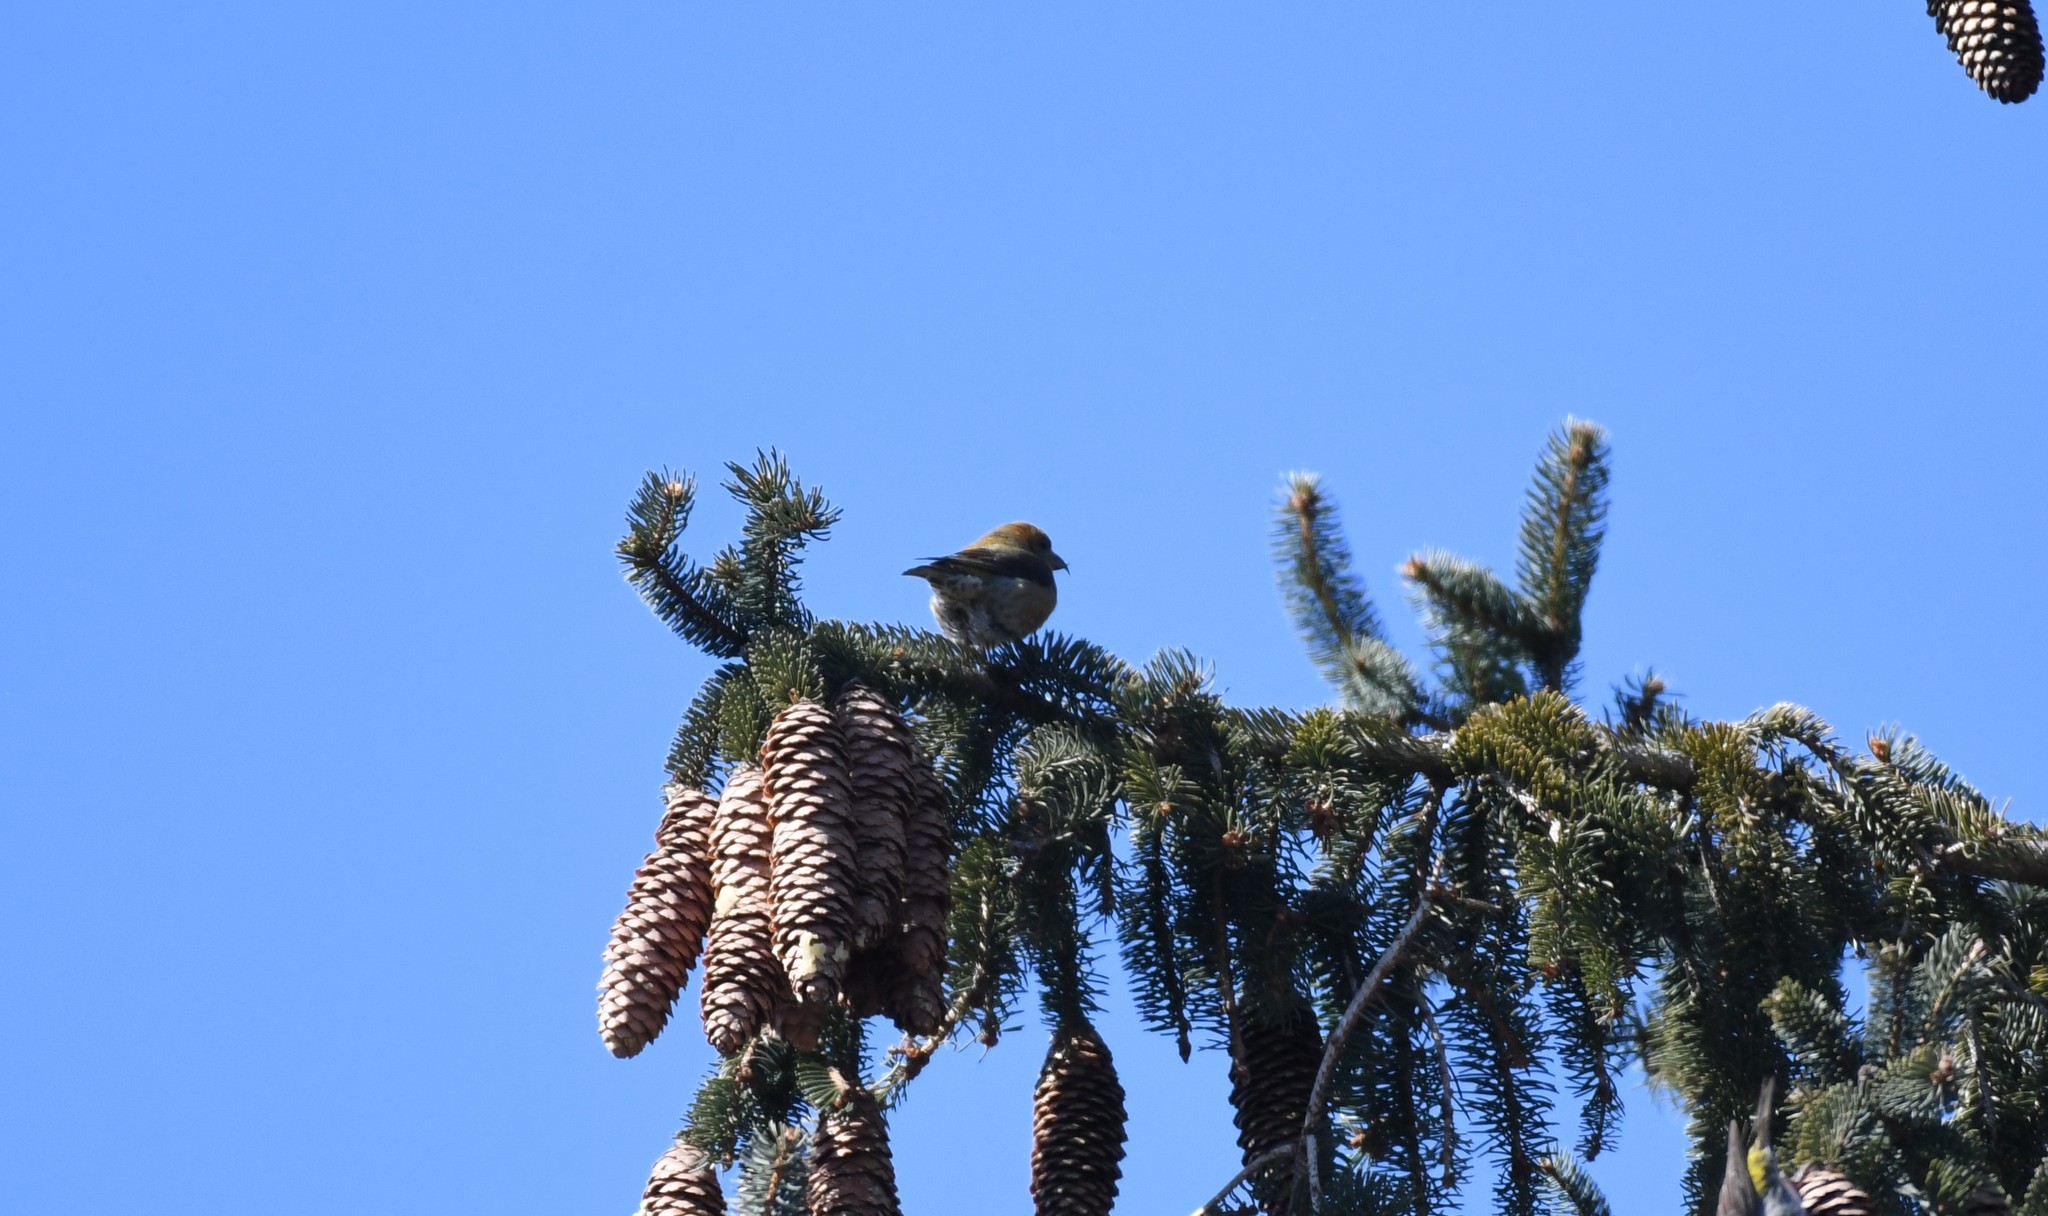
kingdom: Animalia
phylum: Chordata
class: Aves
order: Passeriformes
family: Fringillidae
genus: Loxia
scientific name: Loxia curvirostra
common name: Red crossbill
